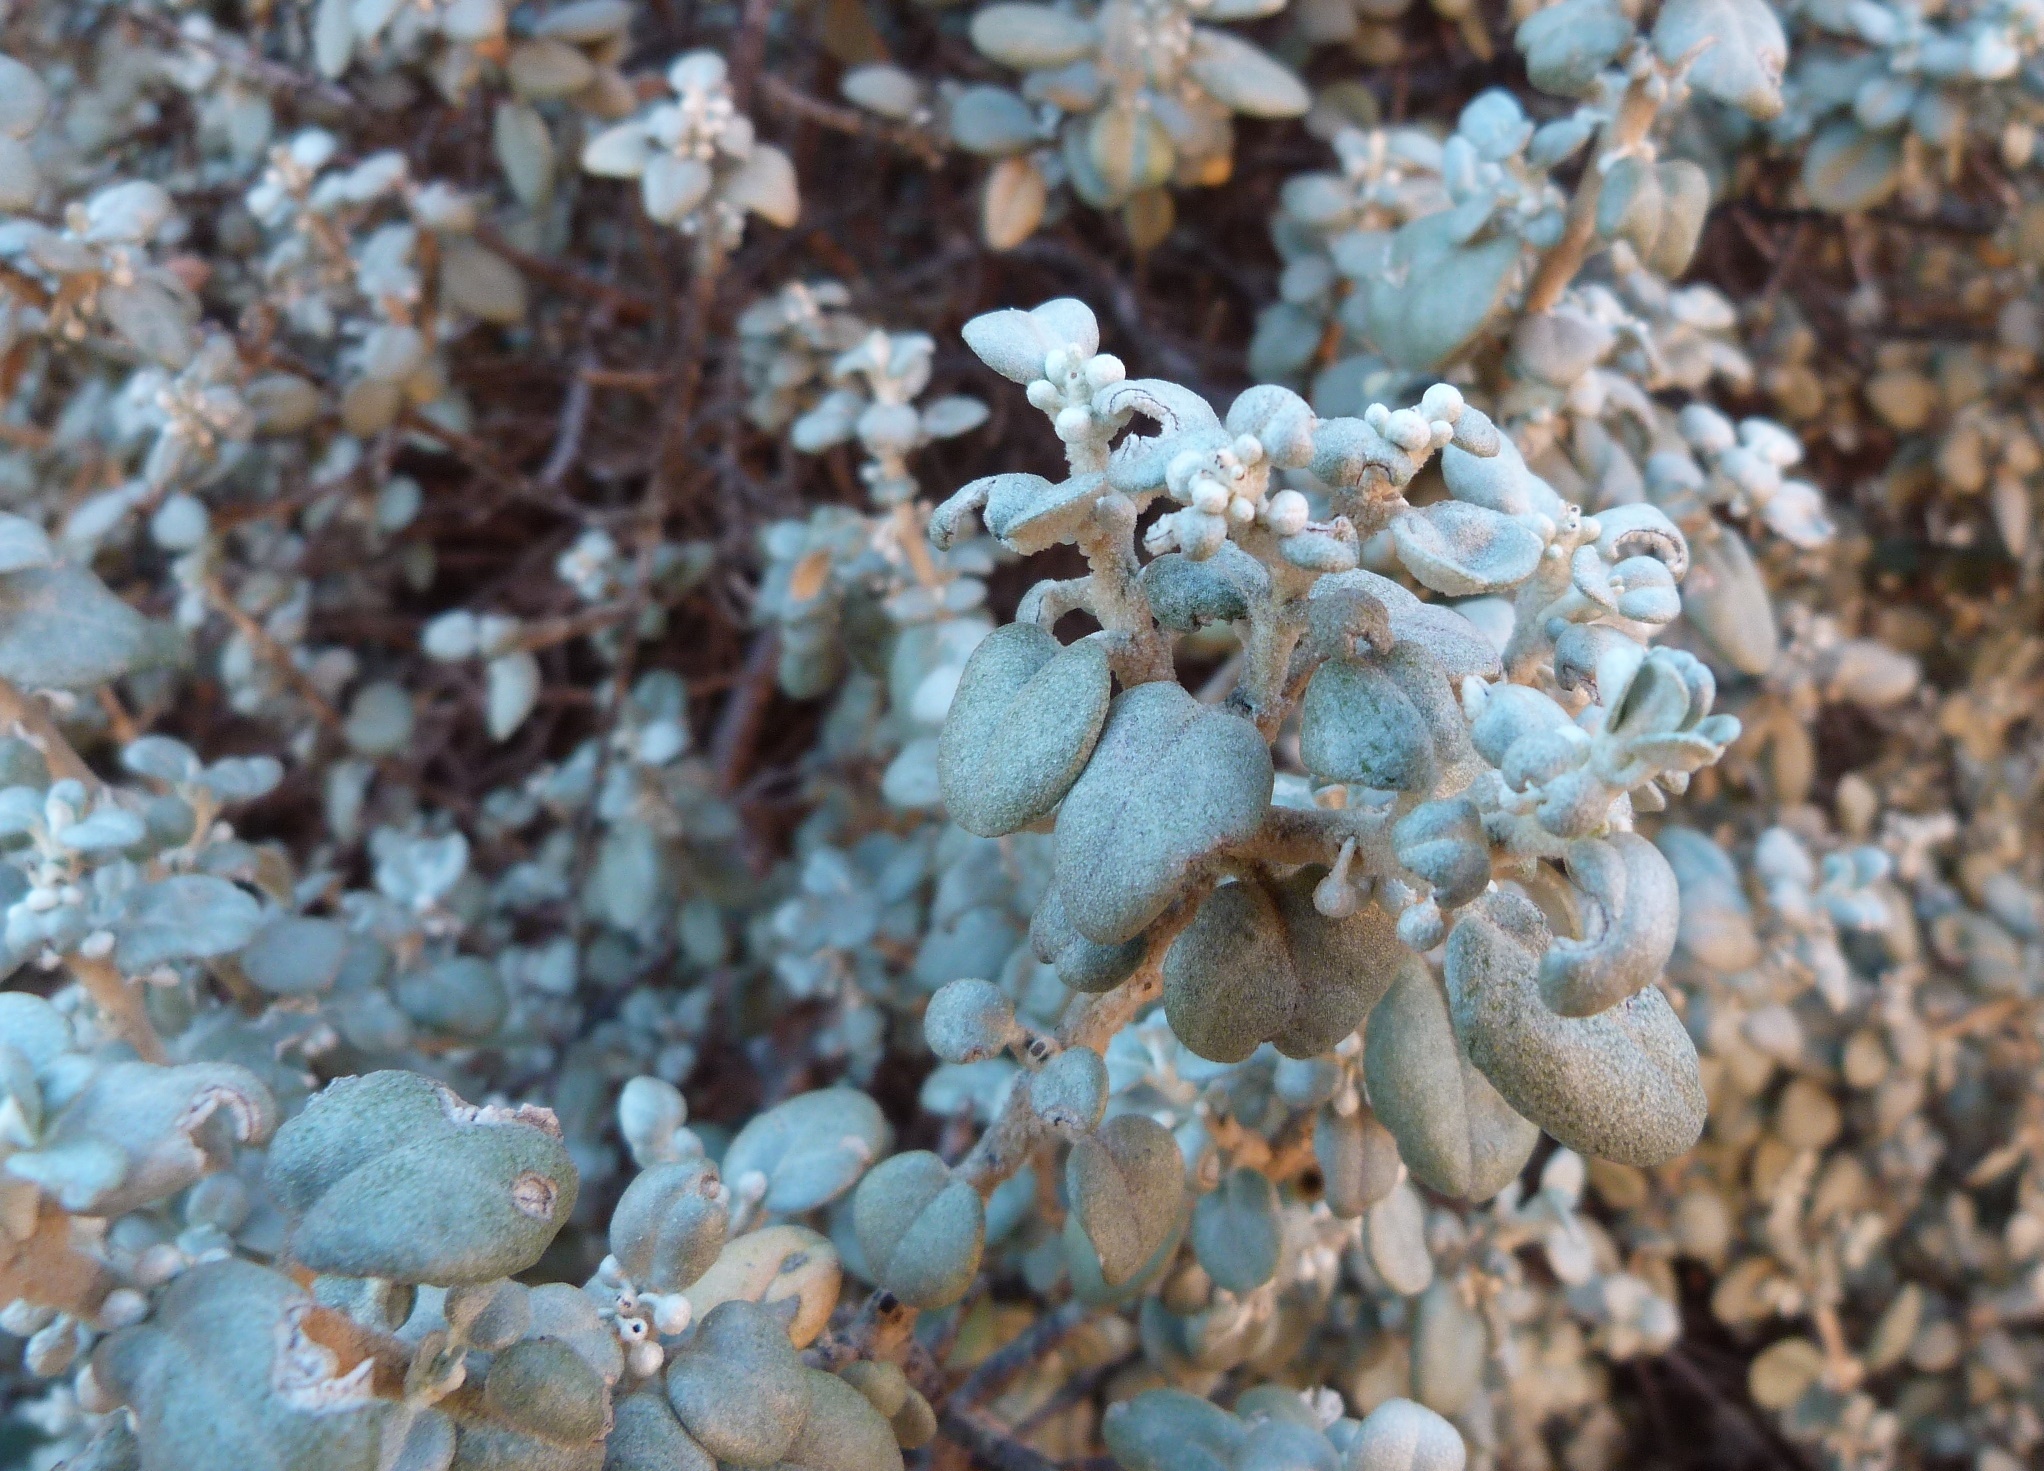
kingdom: Plantae
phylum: Tracheophyta
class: Magnoliopsida
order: Rosales
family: Elaeagnaceae
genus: Shepherdia
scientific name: Shepherdia rotundifolia
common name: Silverscale
